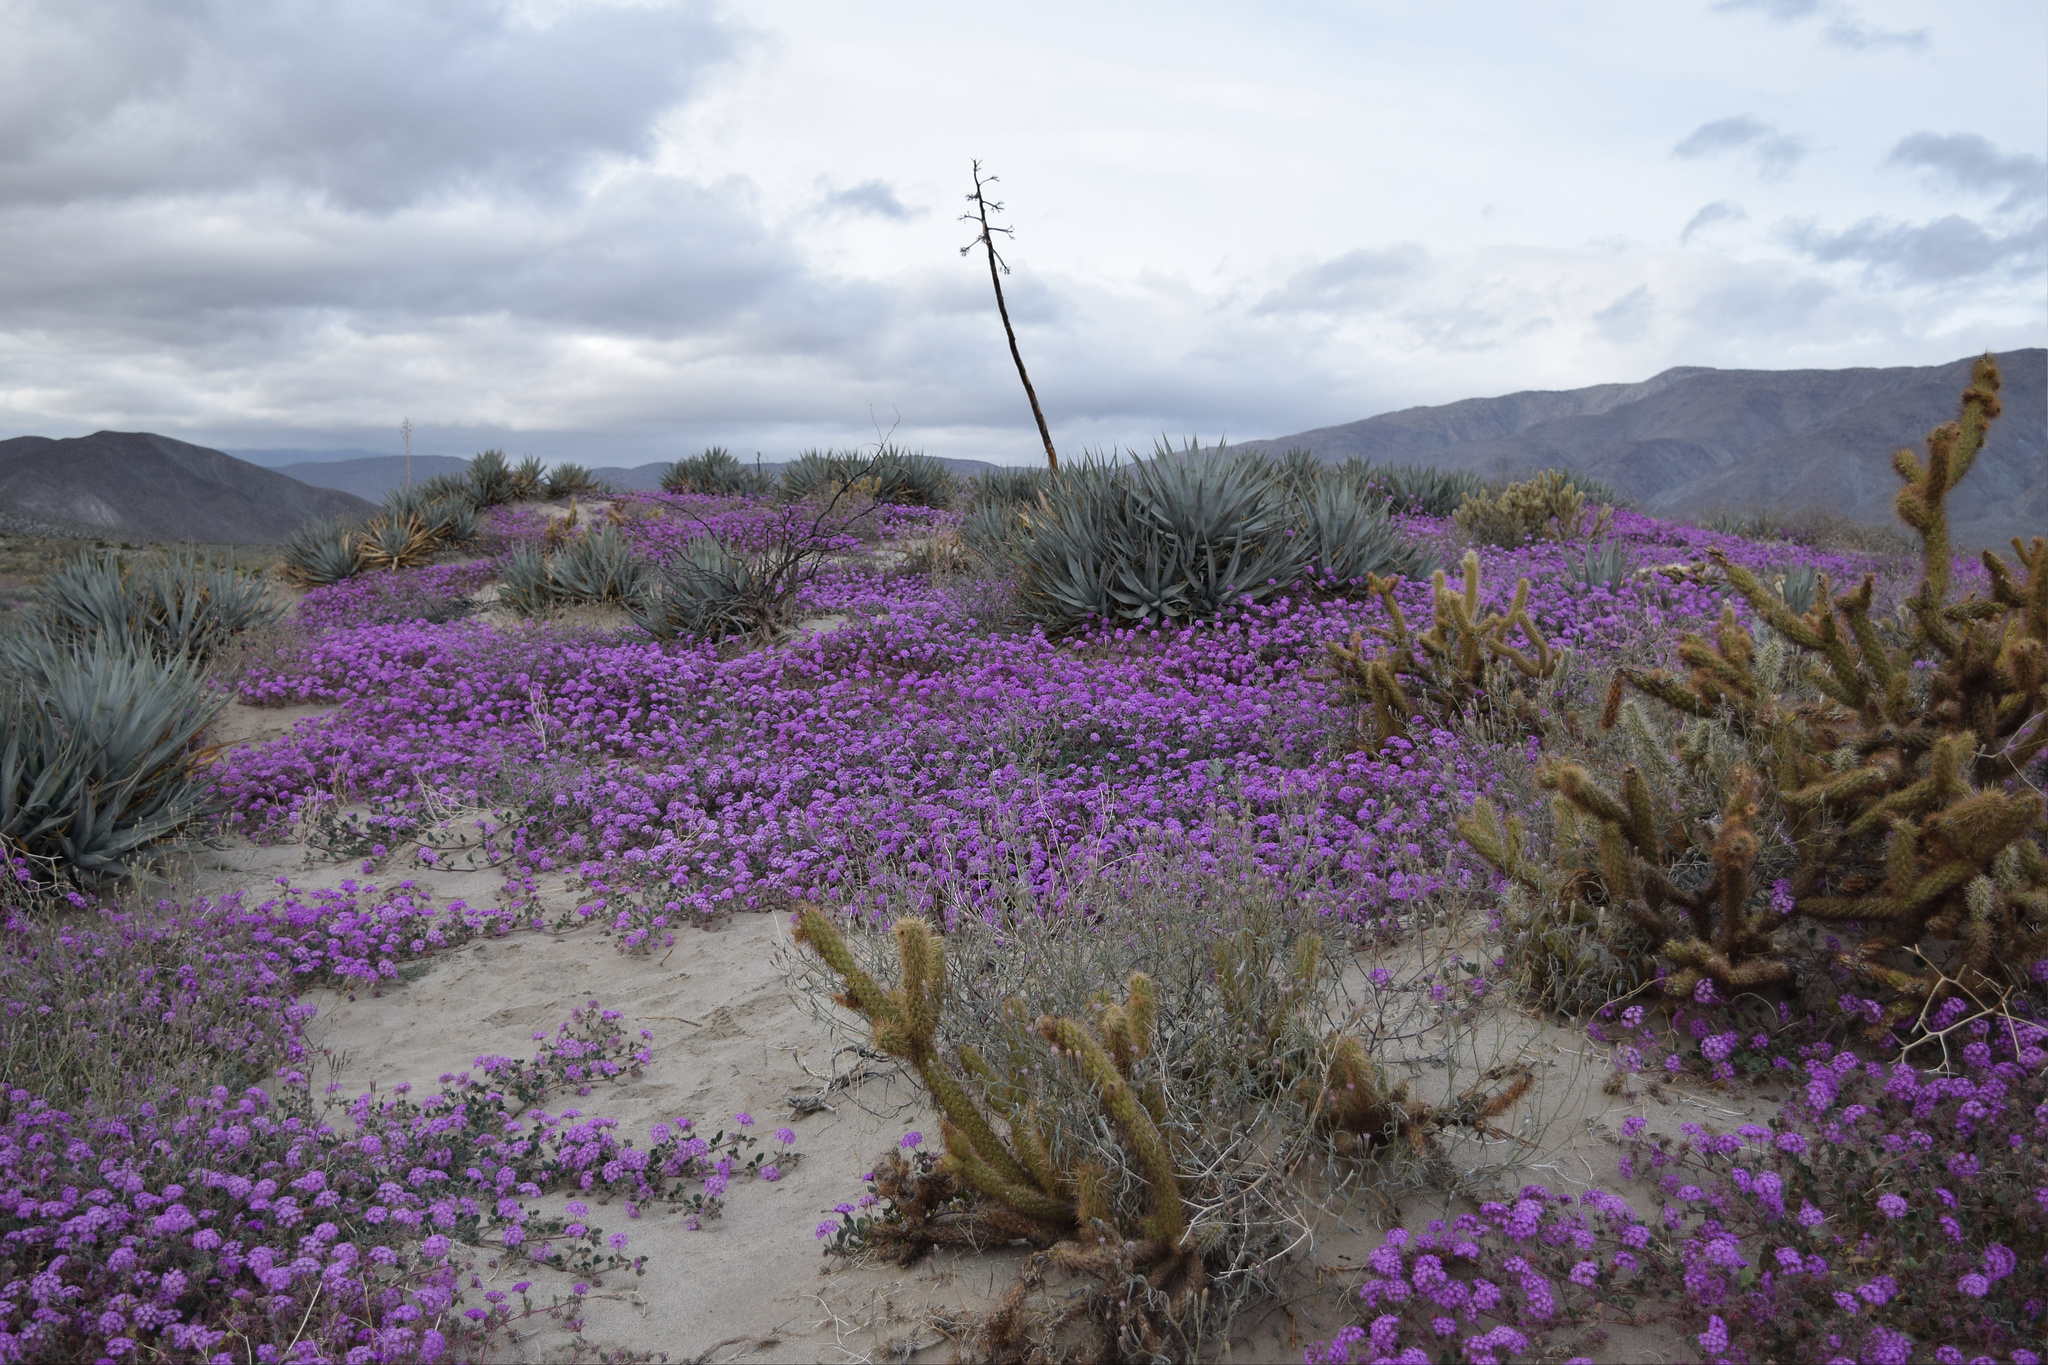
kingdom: Plantae
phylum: Tracheophyta
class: Magnoliopsida
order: Caryophyllales
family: Nyctaginaceae
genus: Abronia
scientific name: Abronia villosa
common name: Desert sand-verbena
